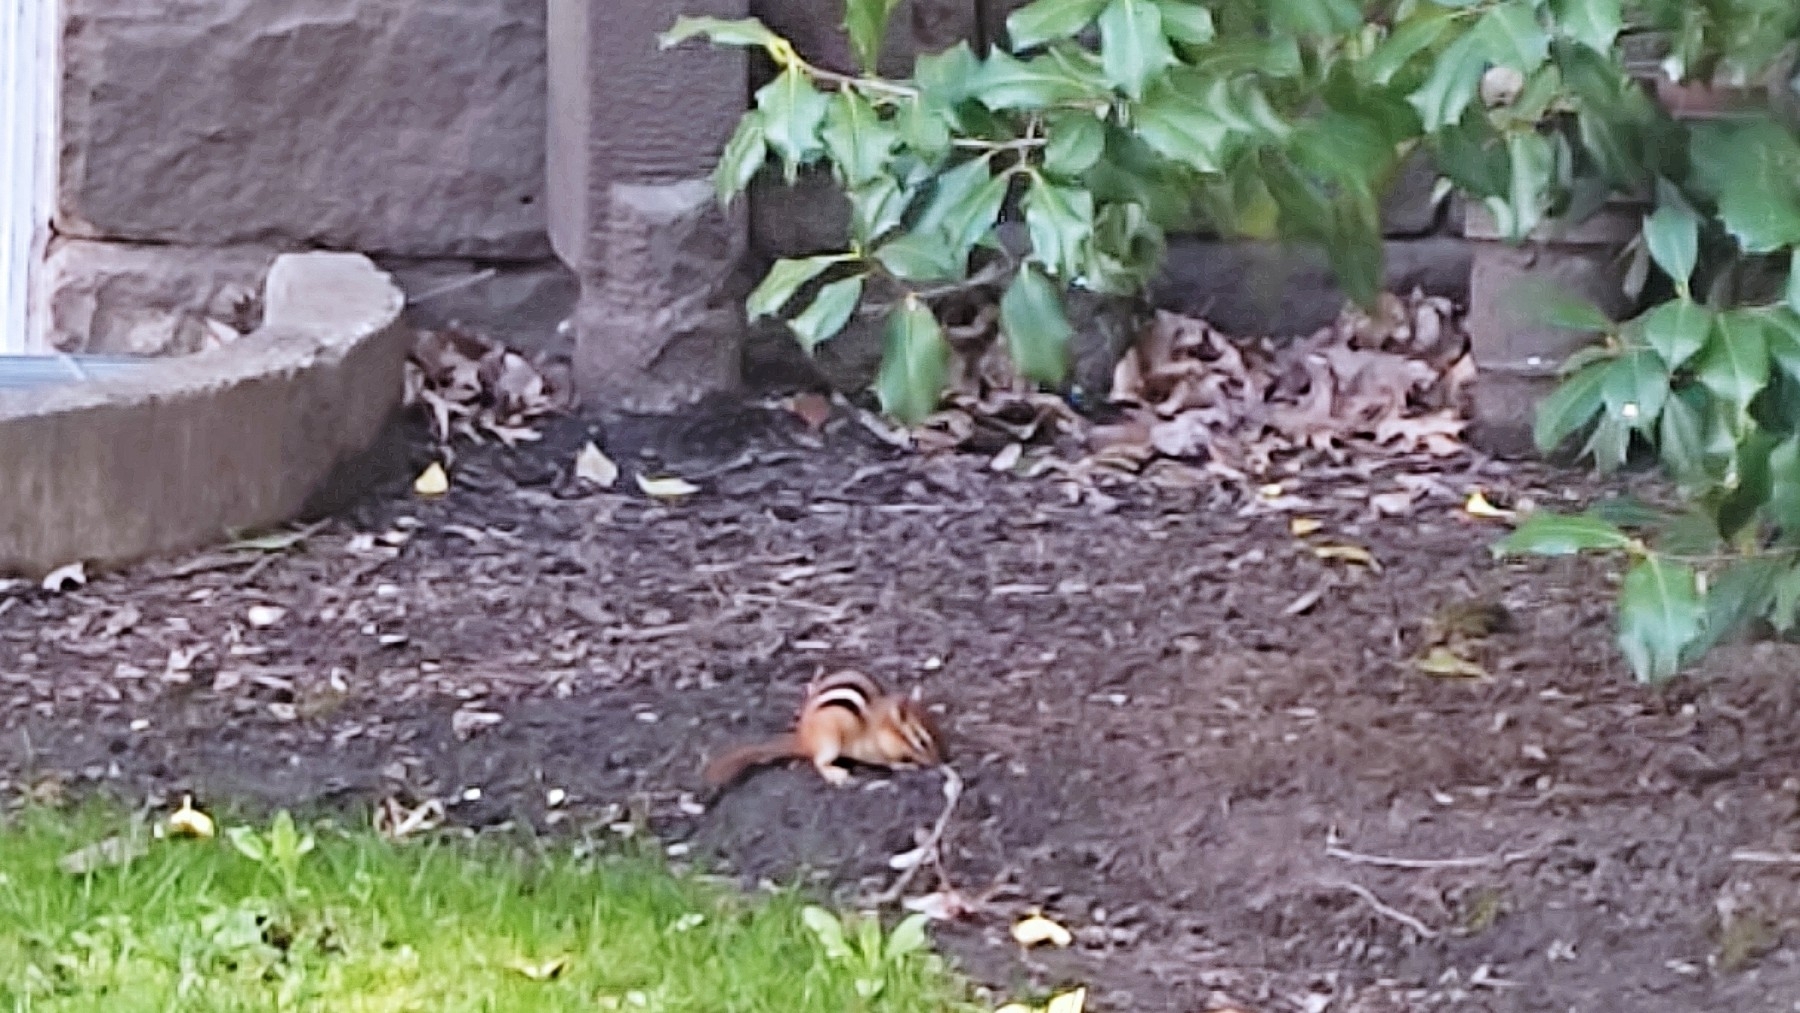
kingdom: Animalia
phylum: Chordata
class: Mammalia
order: Rodentia
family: Sciuridae
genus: Tamias
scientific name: Tamias striatus
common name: Eastern chipmunk
